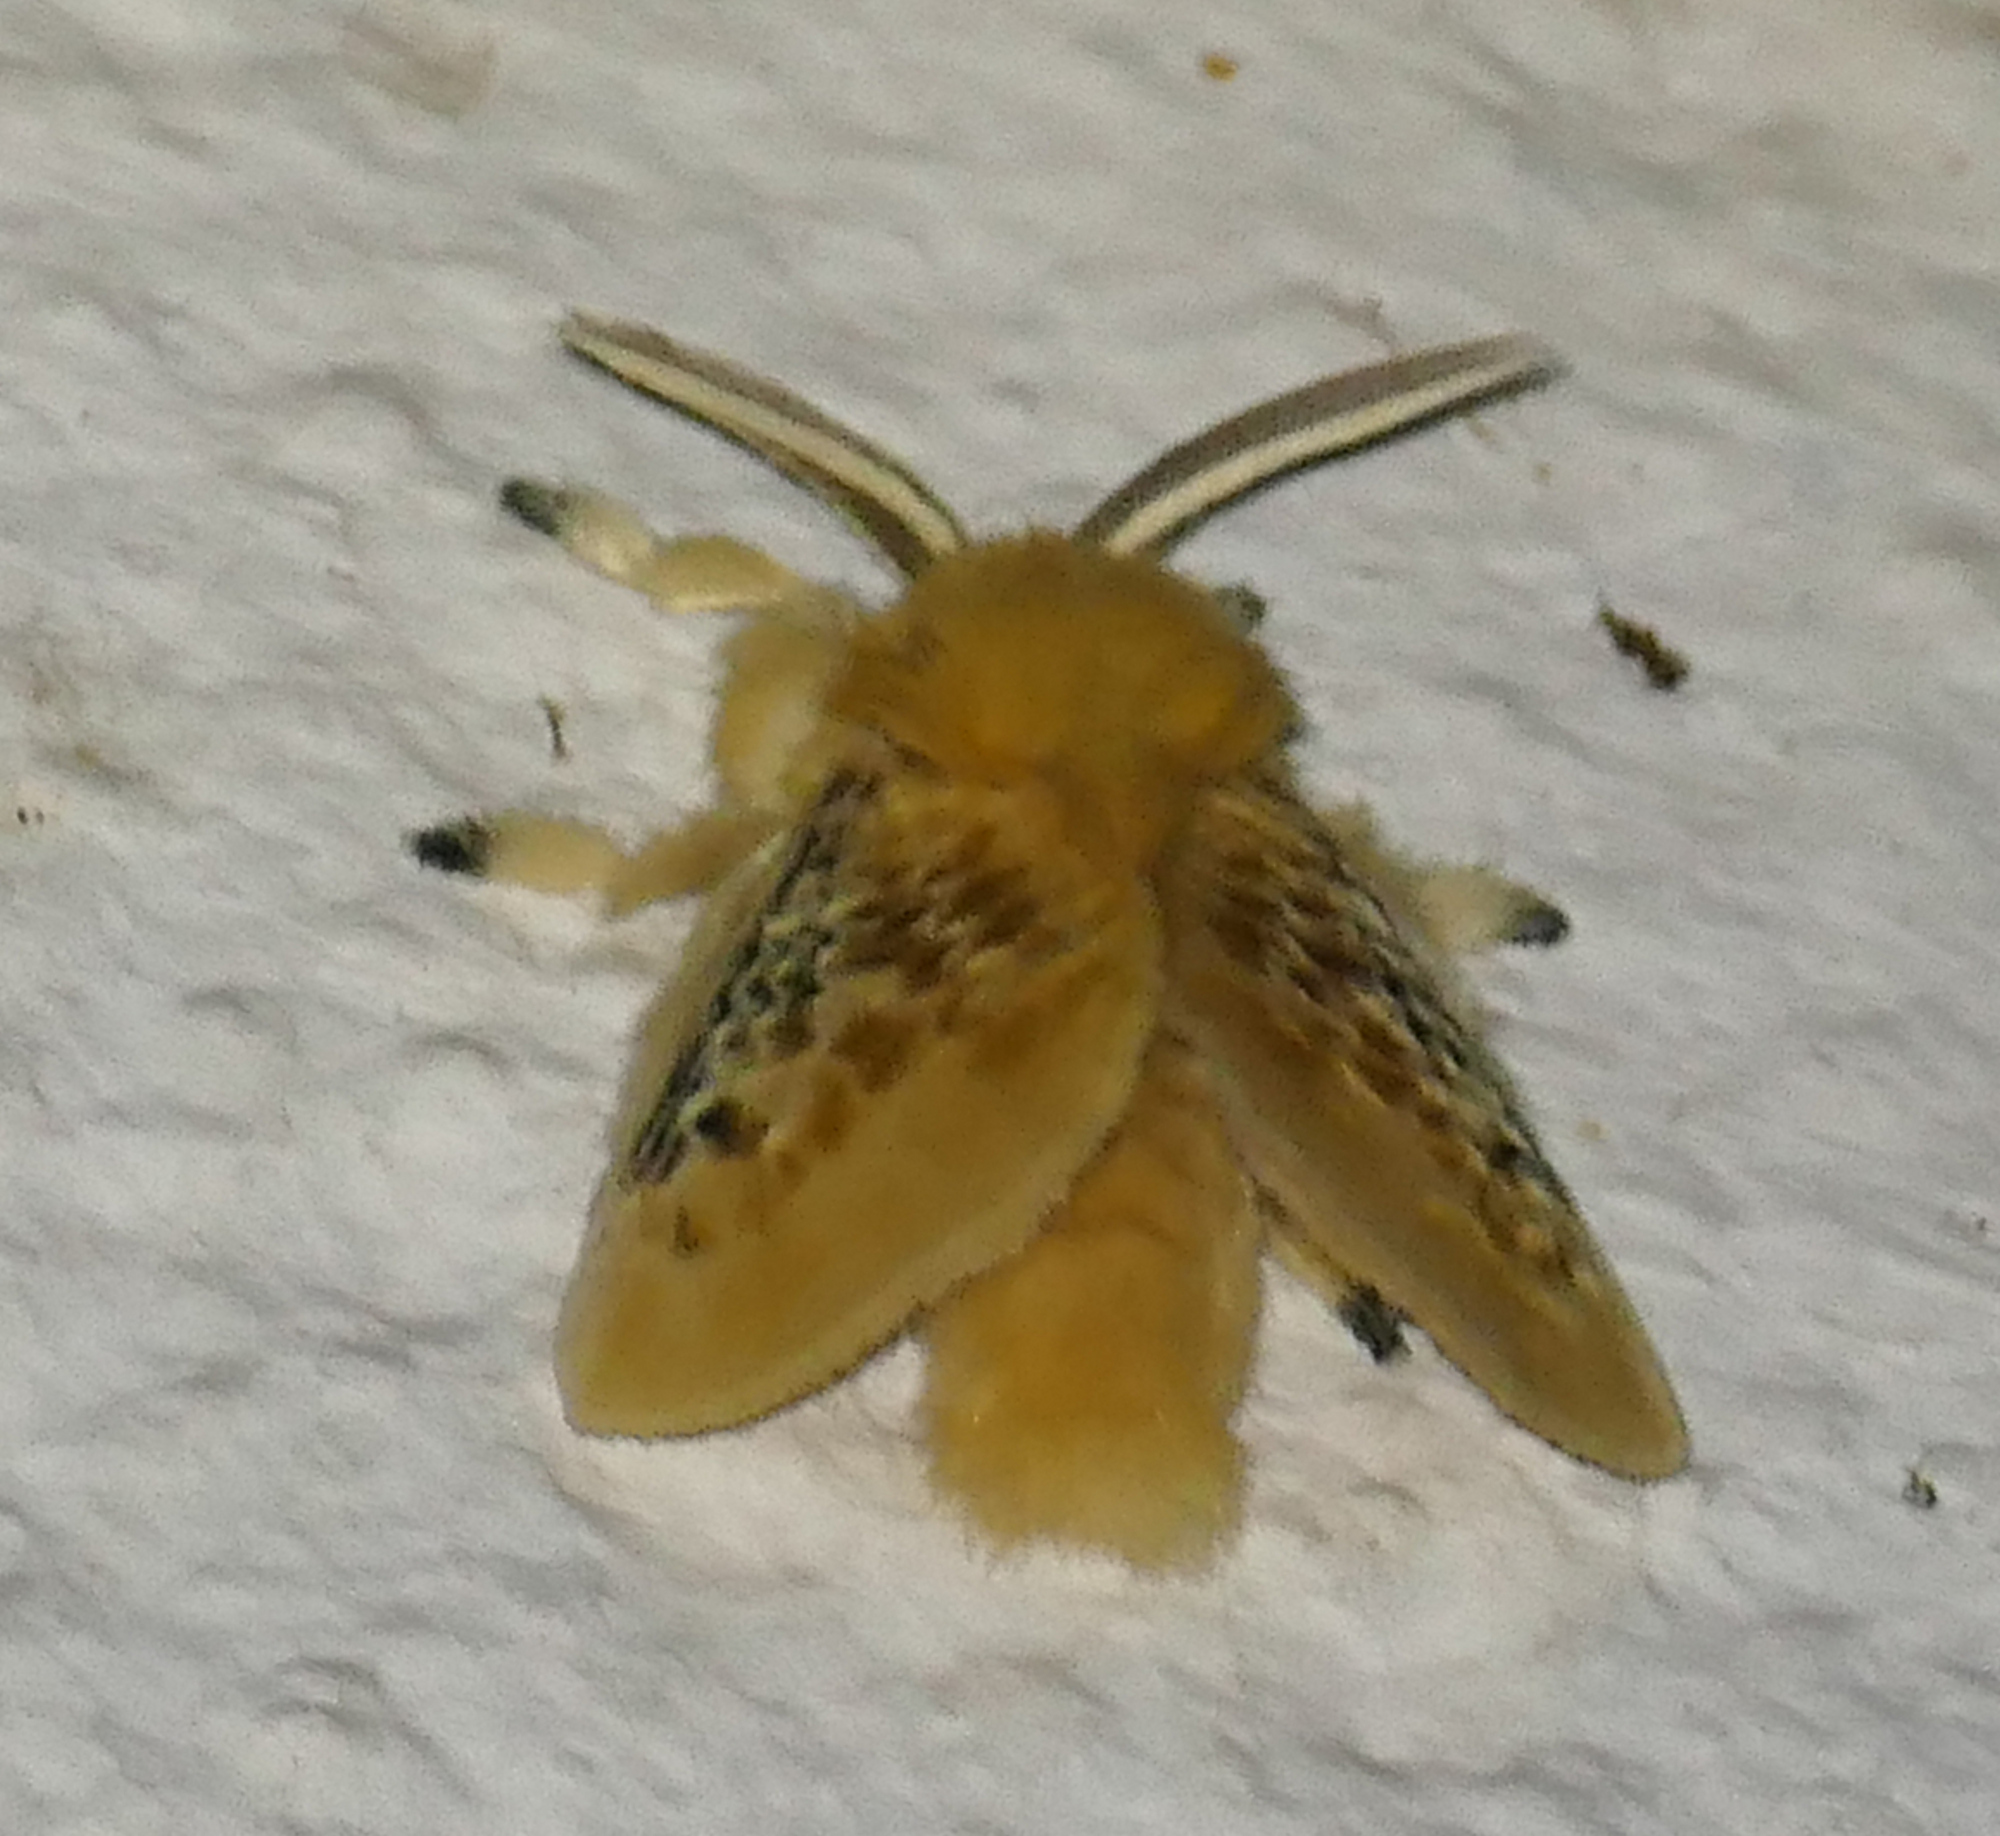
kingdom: Animalia
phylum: Arthropoda
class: Insecta
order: Lepidoptera
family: Megalopygidae
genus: Megalopyge
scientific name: Megalopyge crispata
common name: Black-waved flannel moth
